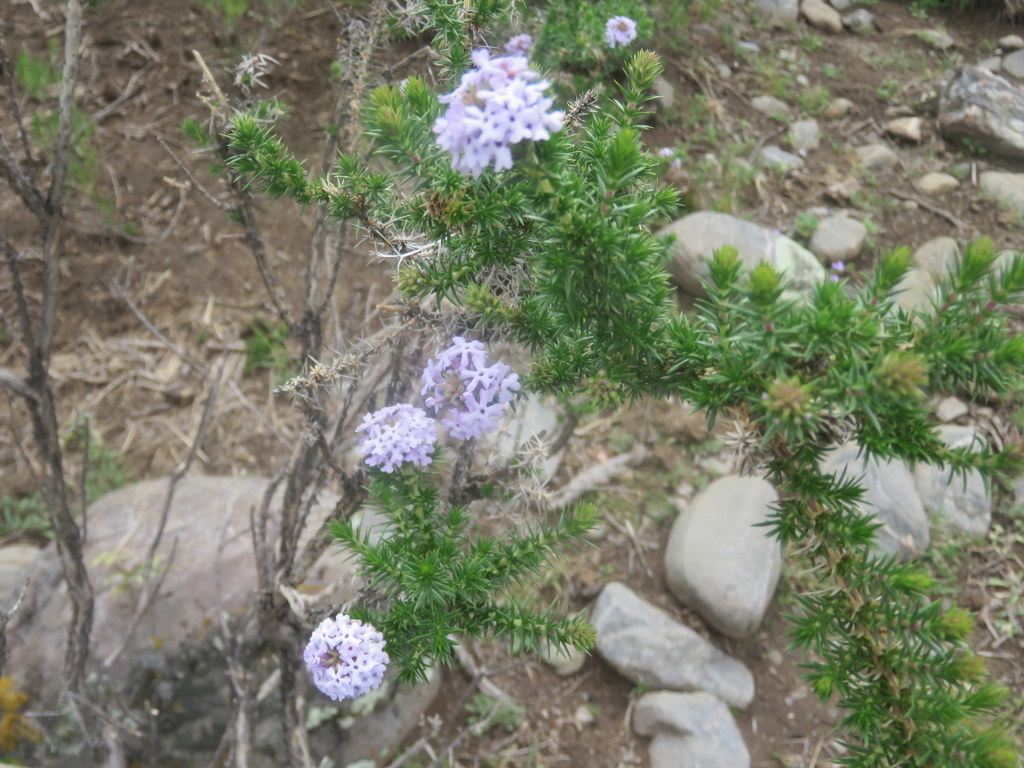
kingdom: Plantae
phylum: Tracheophyta
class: Magnoliopsida
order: Lamiales
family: Verbenaceae
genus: Junellia
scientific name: Junellia juniperina
